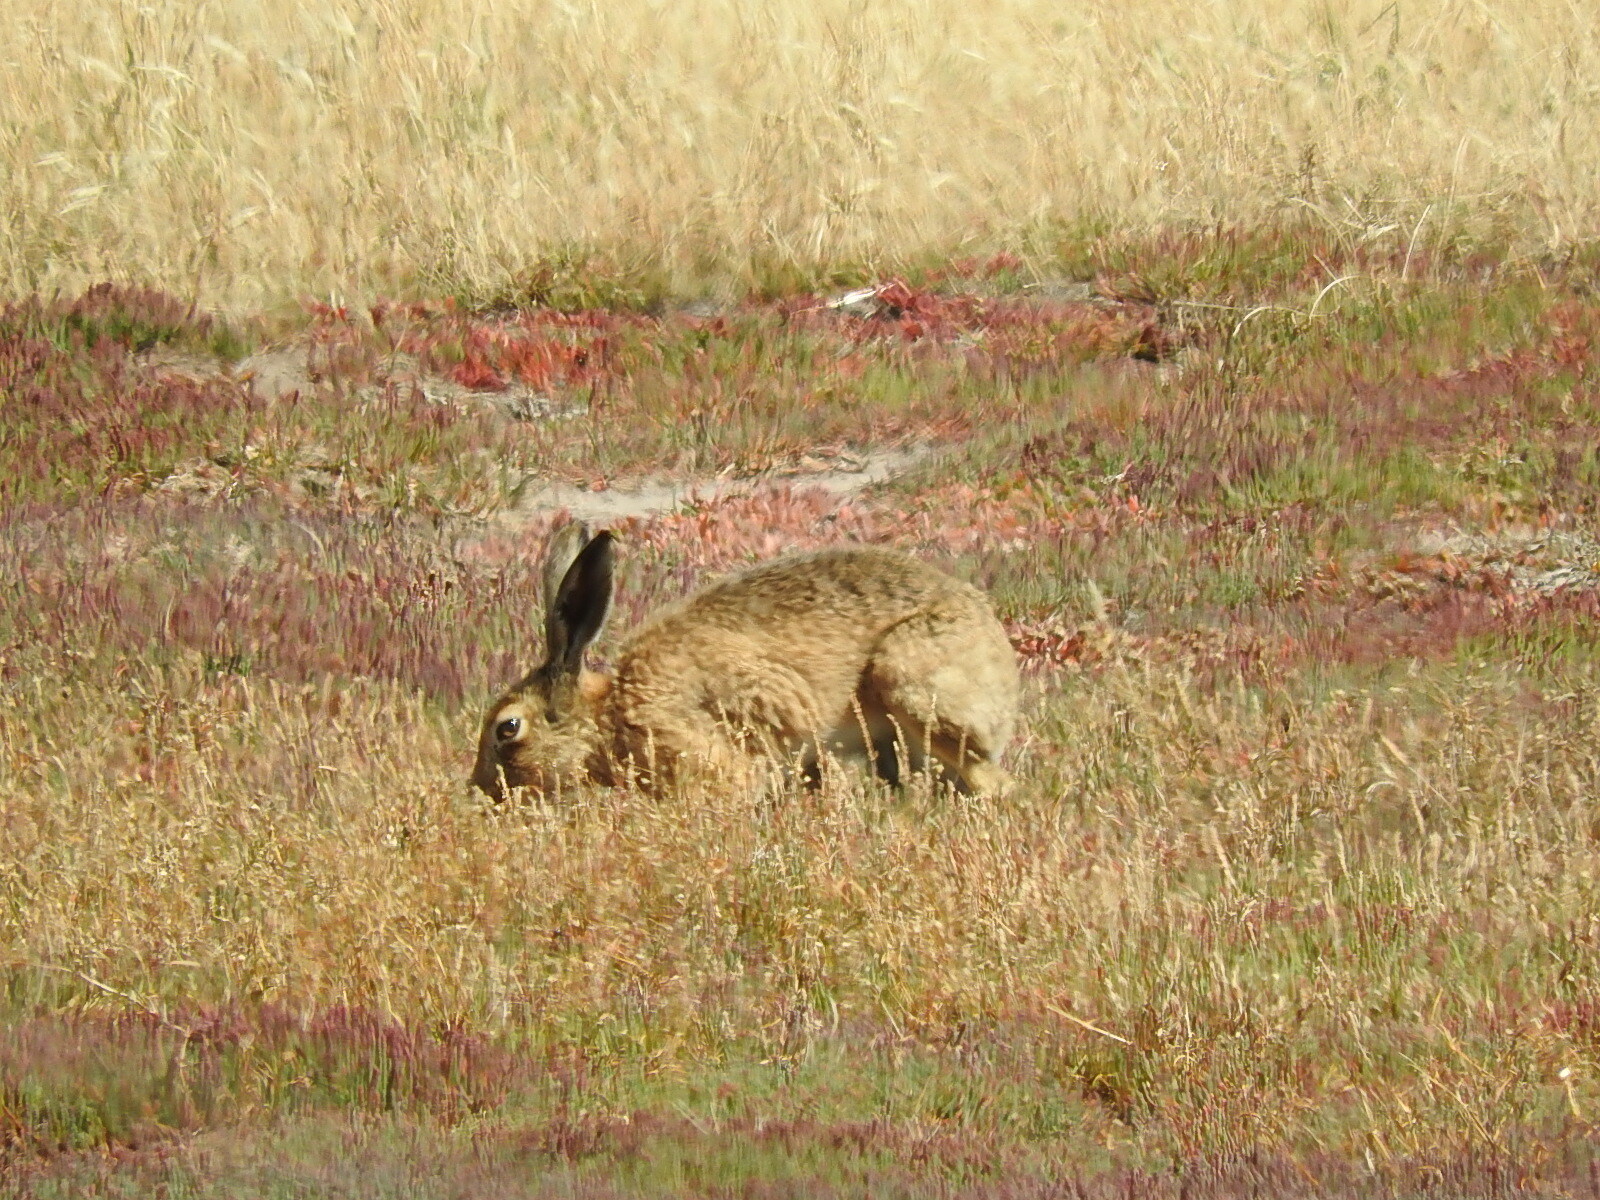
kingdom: Animalia
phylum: Chordata
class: Mammalia
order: Lagomorpha
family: Leporidae
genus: Lepus
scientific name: Lepus europaeus
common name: European hare
